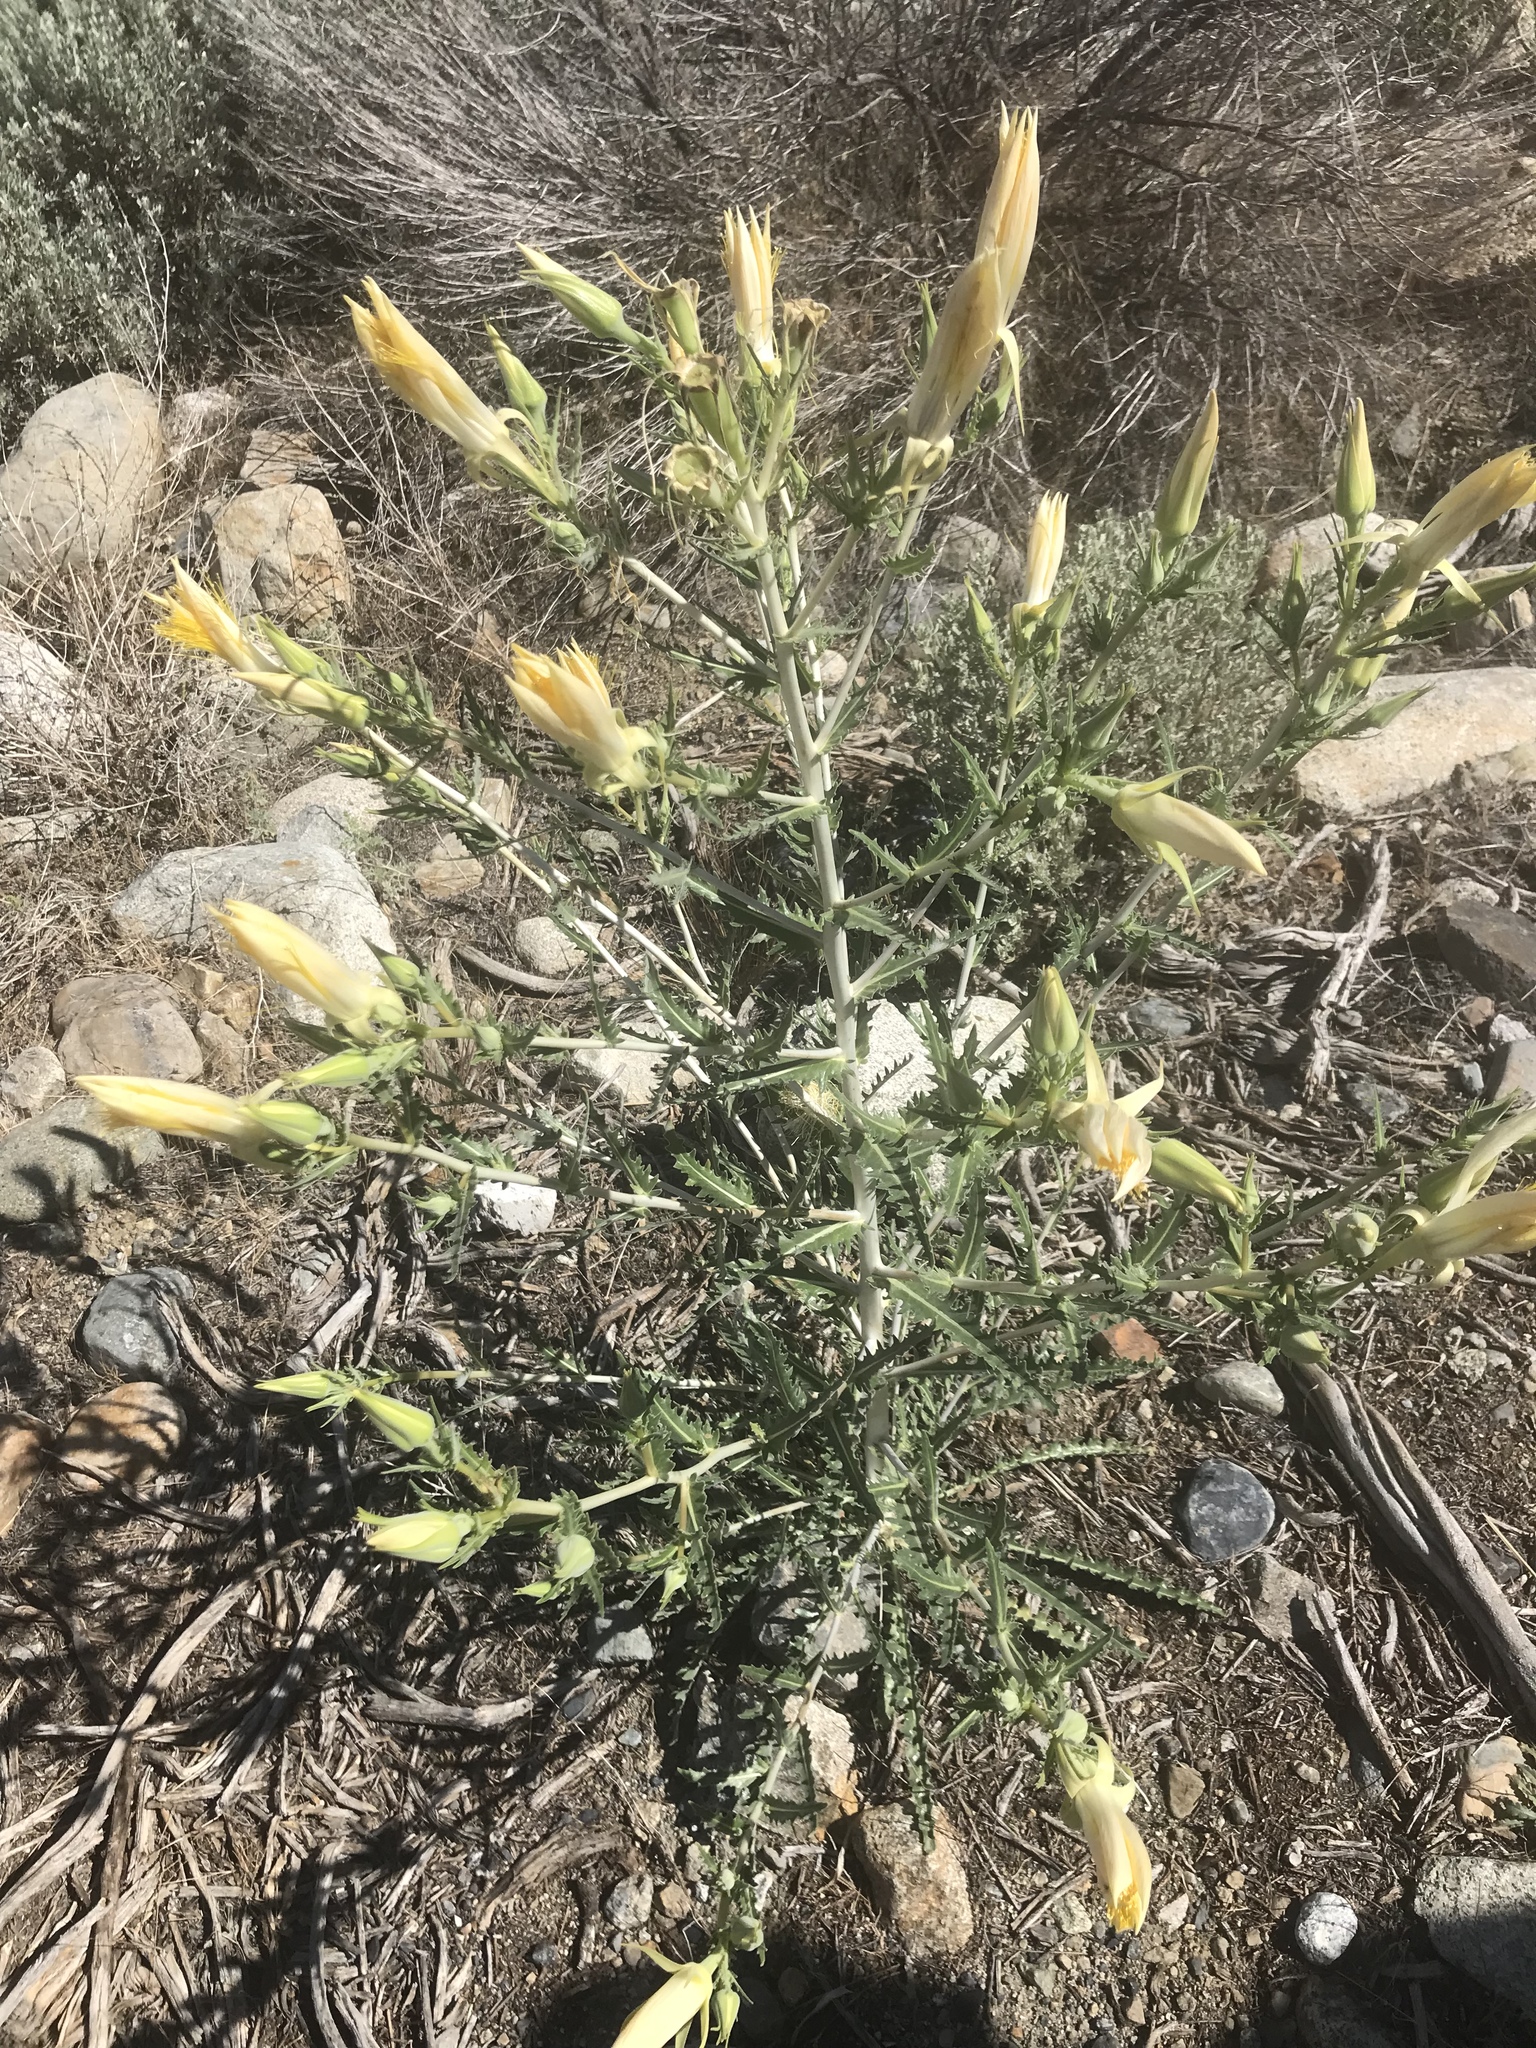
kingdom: Plantae
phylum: Tracheophyta
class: Magnoliopsida
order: Cornales
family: Loasaceae
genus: Mentzelia
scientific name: Mentzelia laevicaulis
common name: Smooth-stem blazingstar
